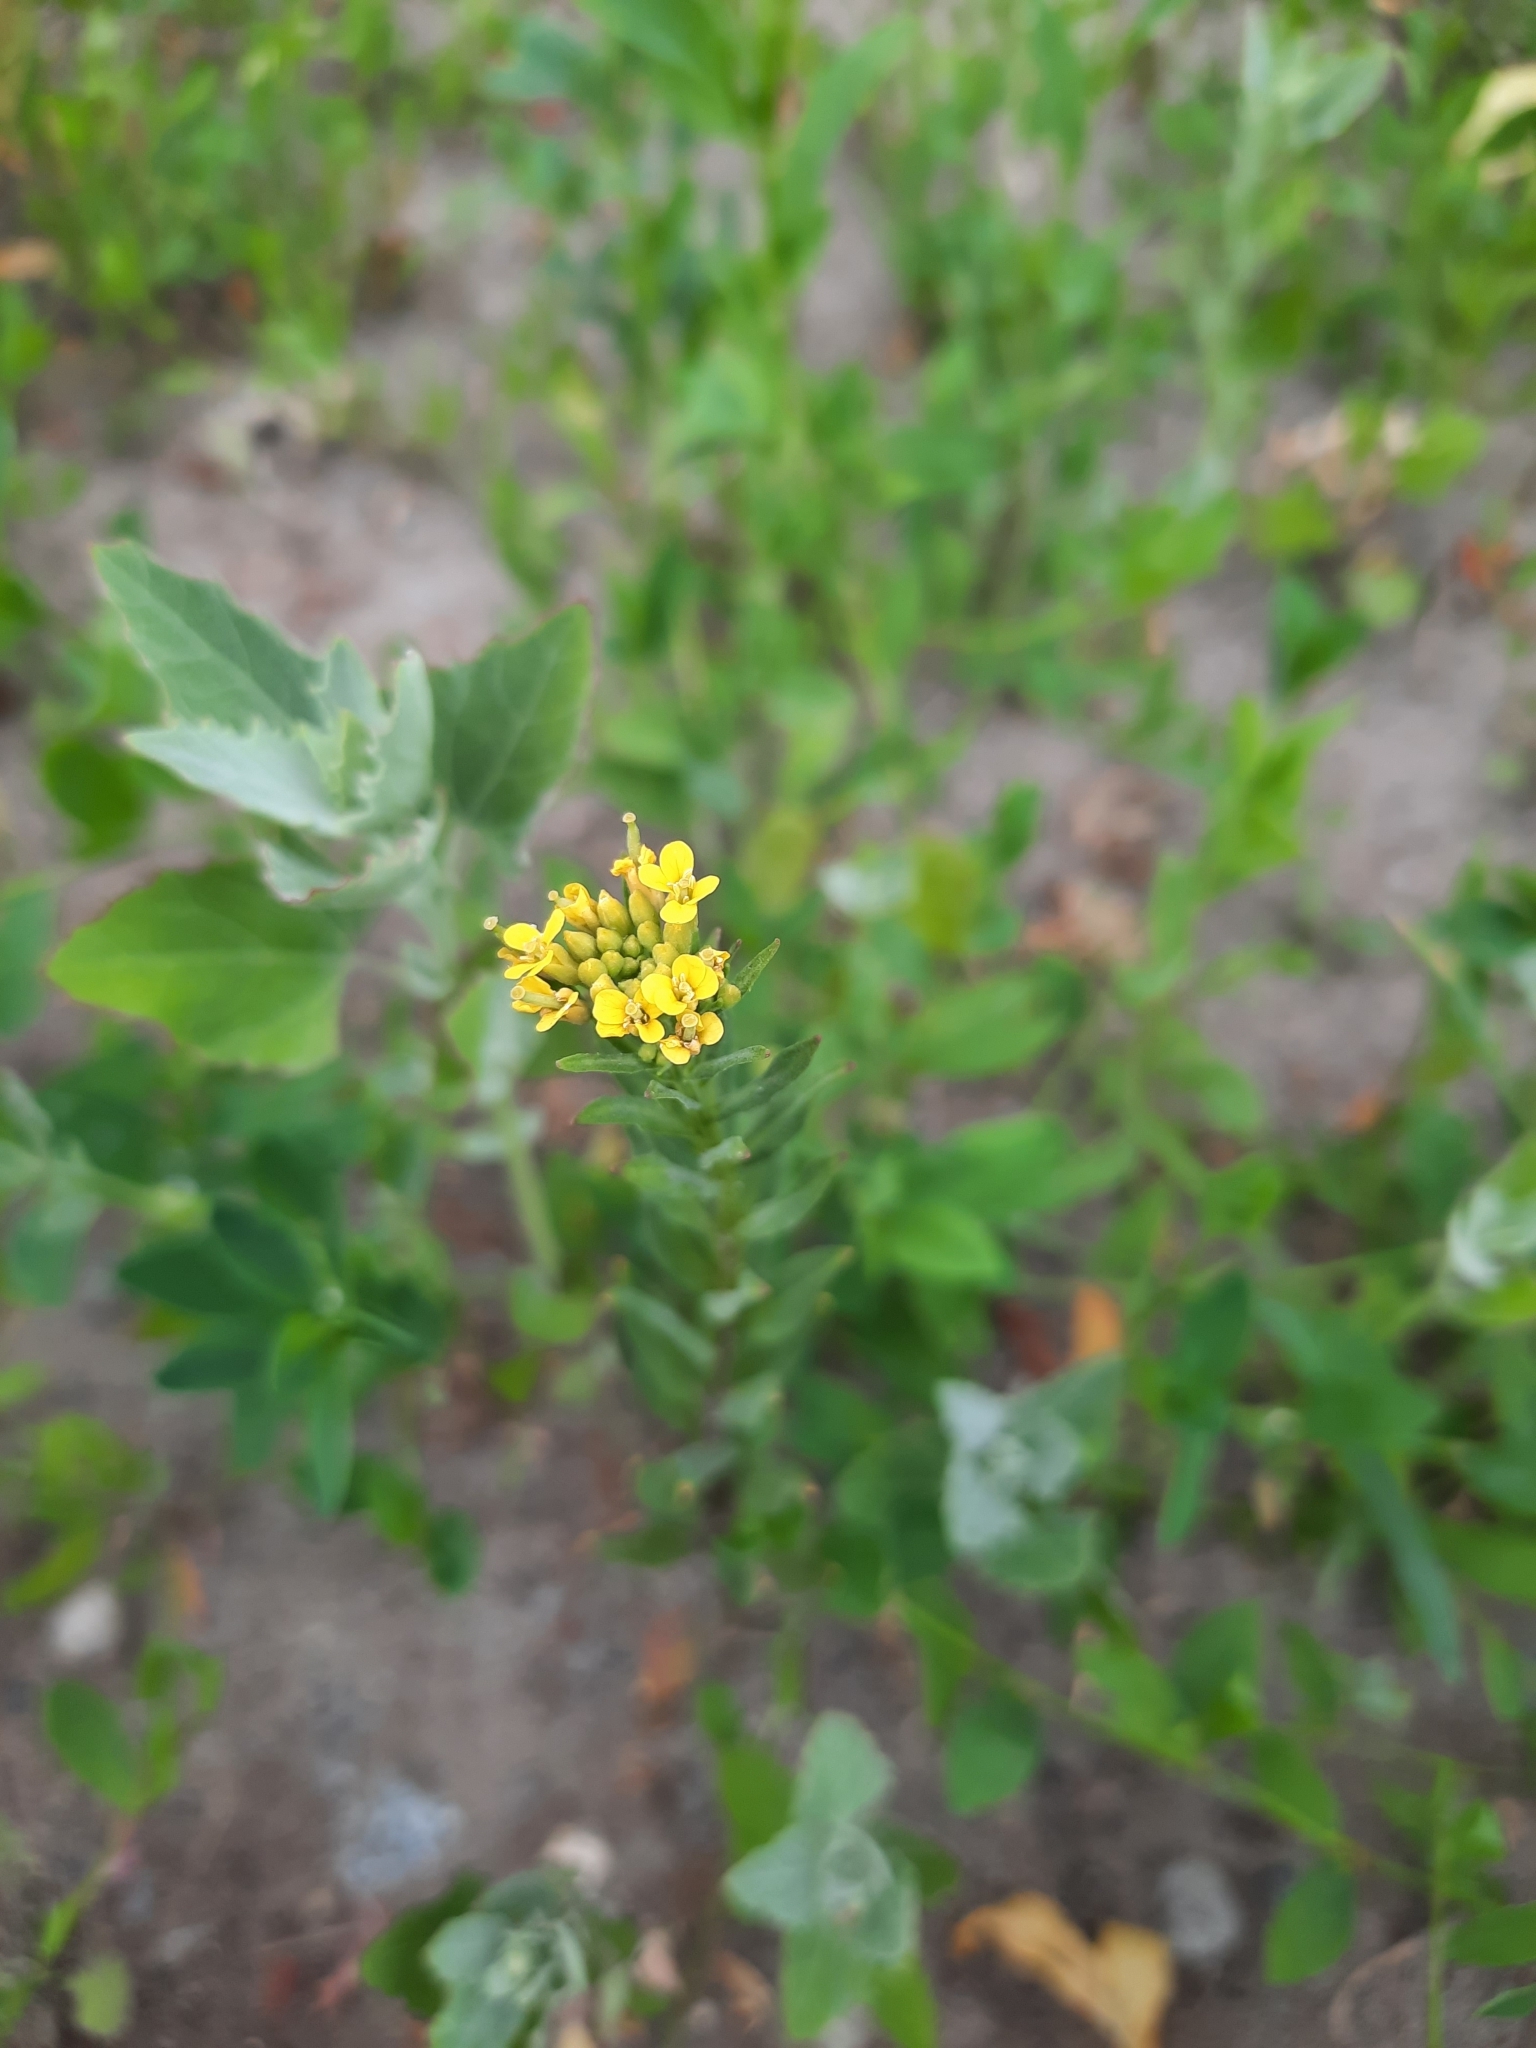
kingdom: Plantae
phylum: Tracheophyta
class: Magnoliopsida
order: Brassicales
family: Brassicaceae
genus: Erysimum
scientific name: Erysimum cheiranthoides
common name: Treacle mustard
